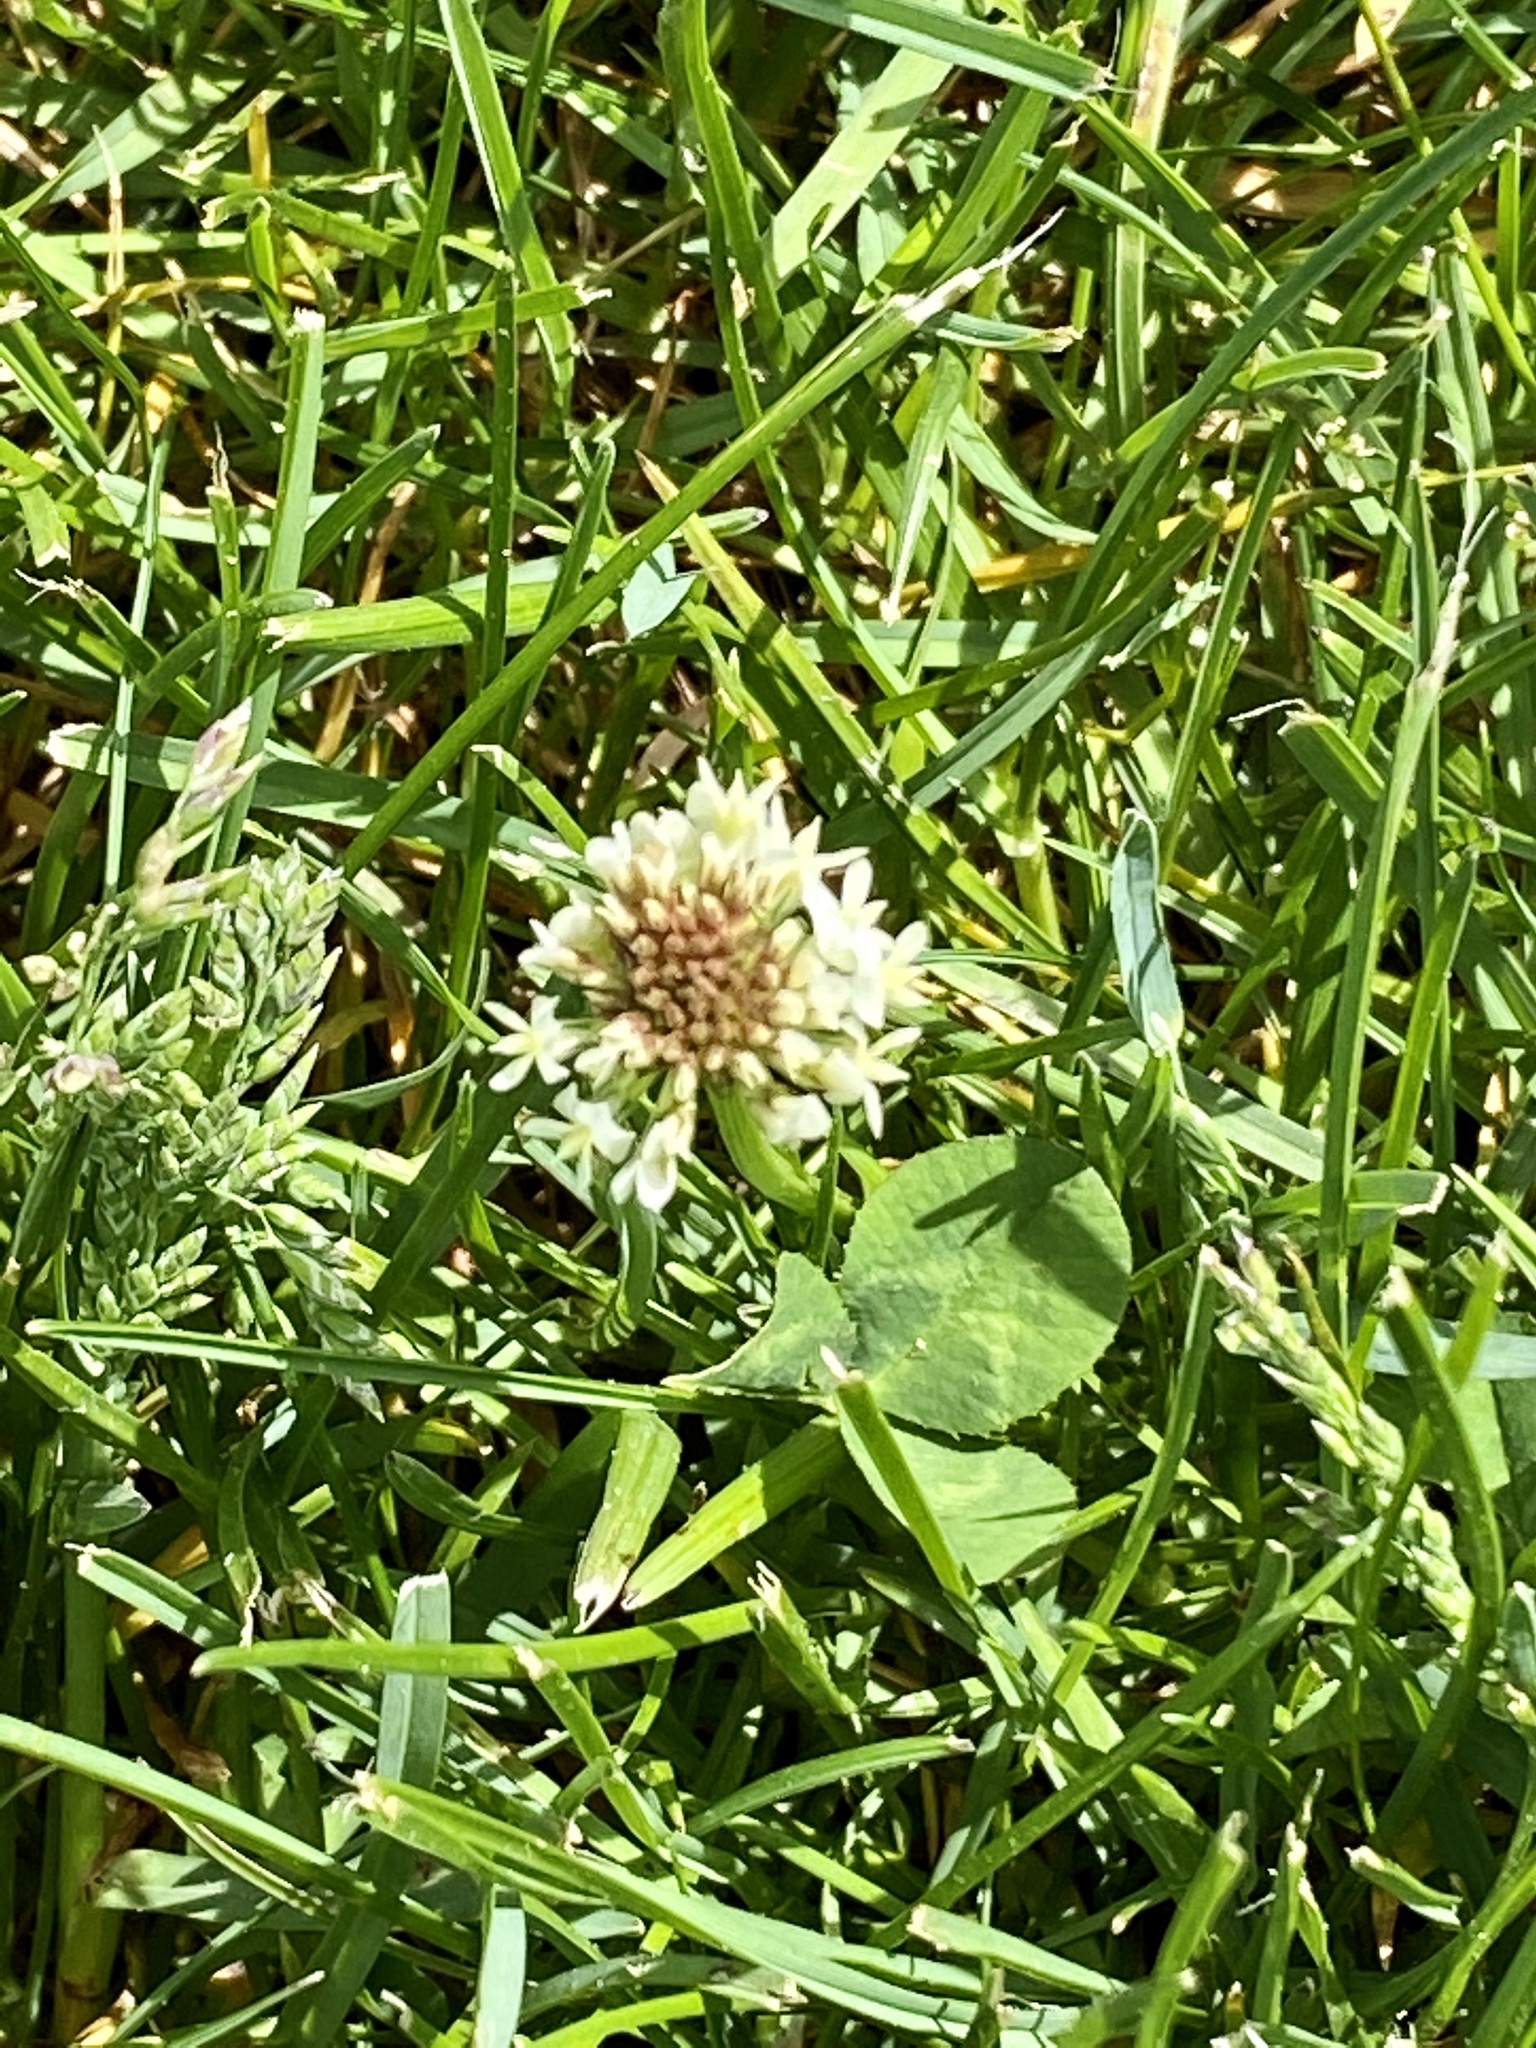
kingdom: Plantae
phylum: Tracheophyta
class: Magnoliopsida
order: Fabales
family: Fabaceae
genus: Trifolium
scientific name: Trifolium repens
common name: White clover
